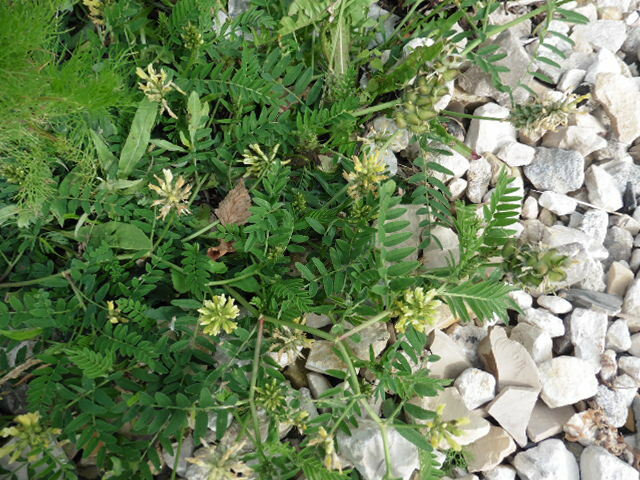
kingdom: Plantae
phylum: Tracheophyta
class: Magnoliopsida
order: Fabales
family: Fabaceae
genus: Astragalus
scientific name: Astragalus cicer
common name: Chick-pea milk-vetch
